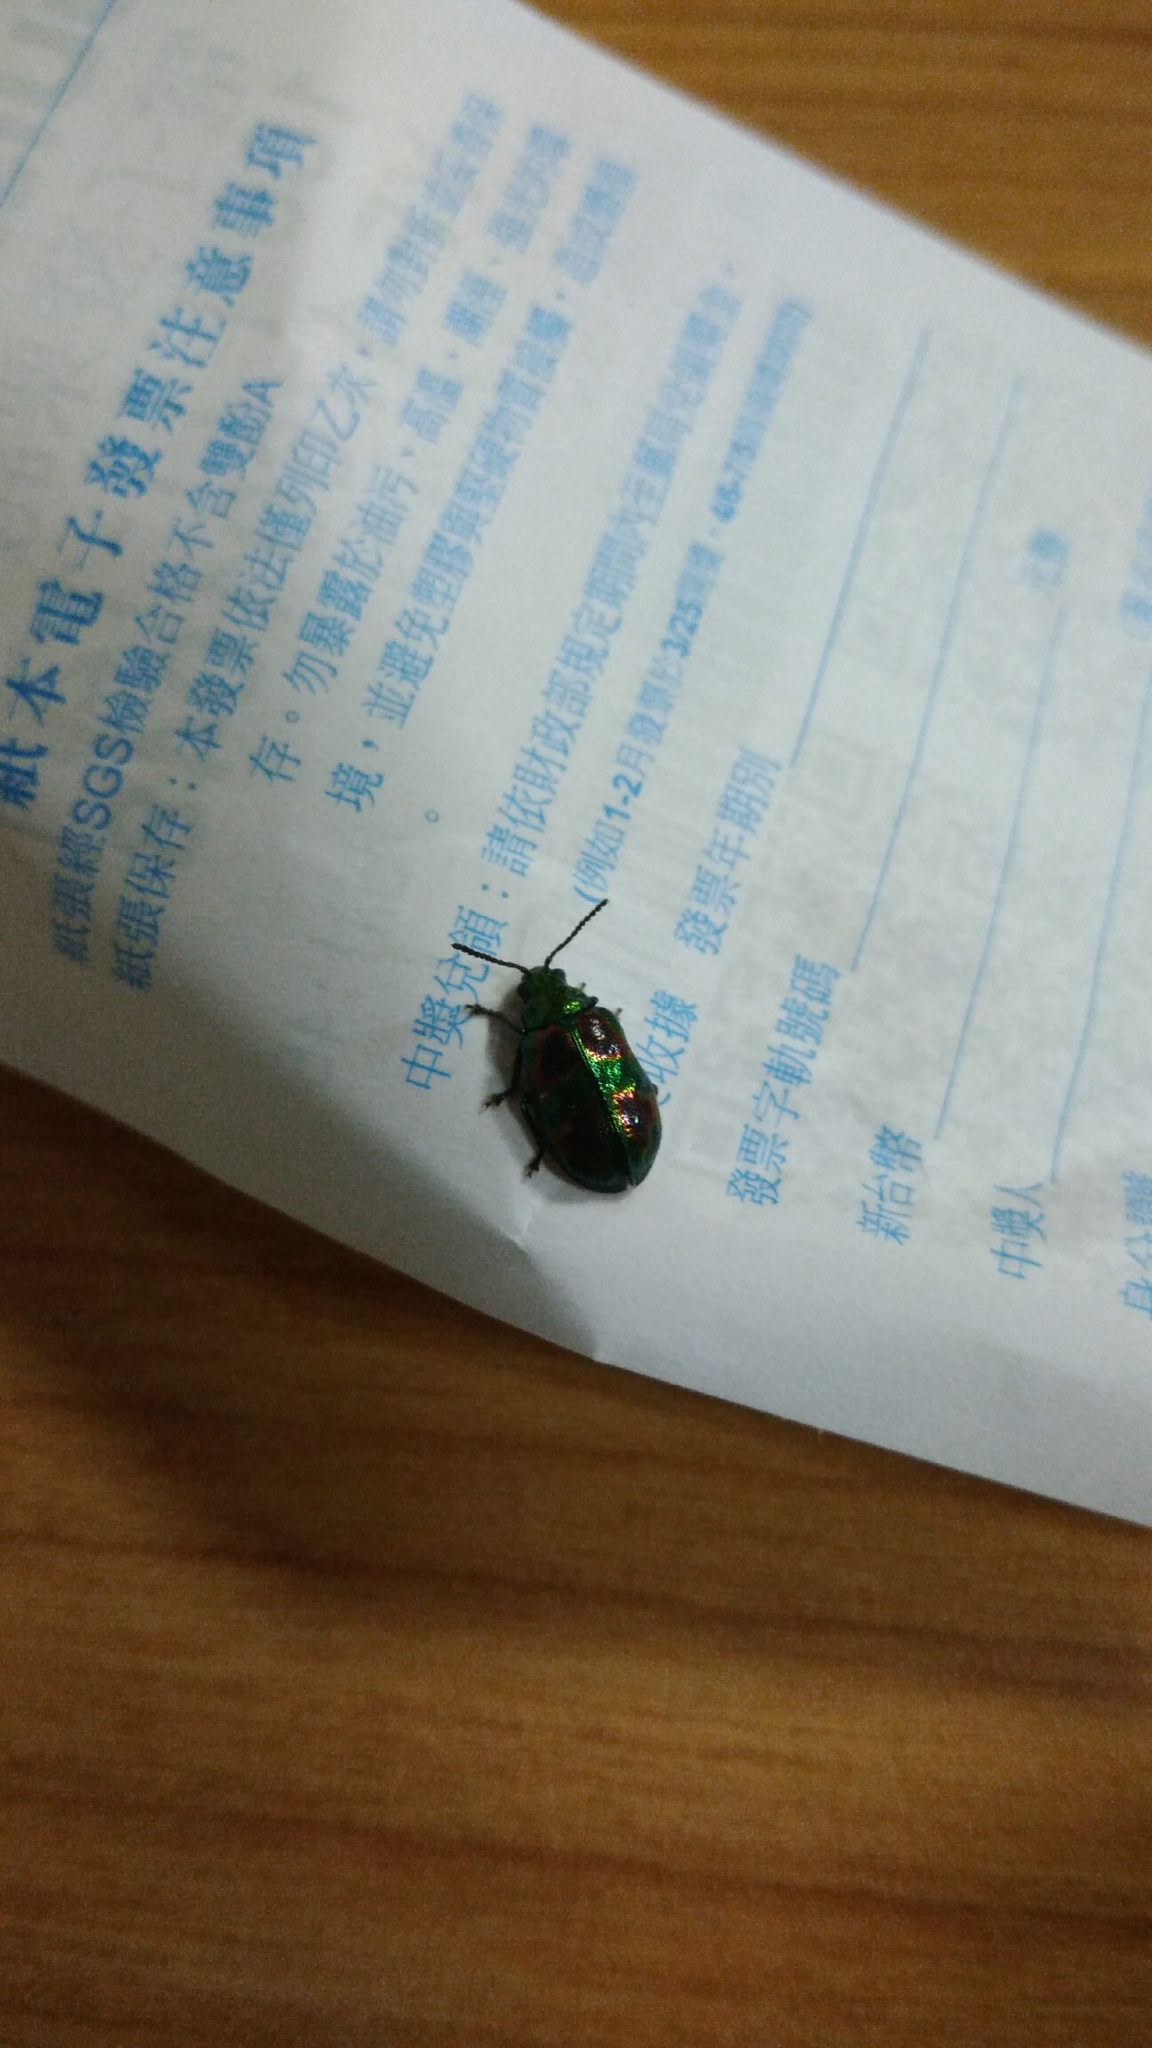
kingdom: Animalia
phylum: Arthropoda
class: Insecta
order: Coleoptera
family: Chrysomelidae
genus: Clitenella
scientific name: Clitenella fulminans
